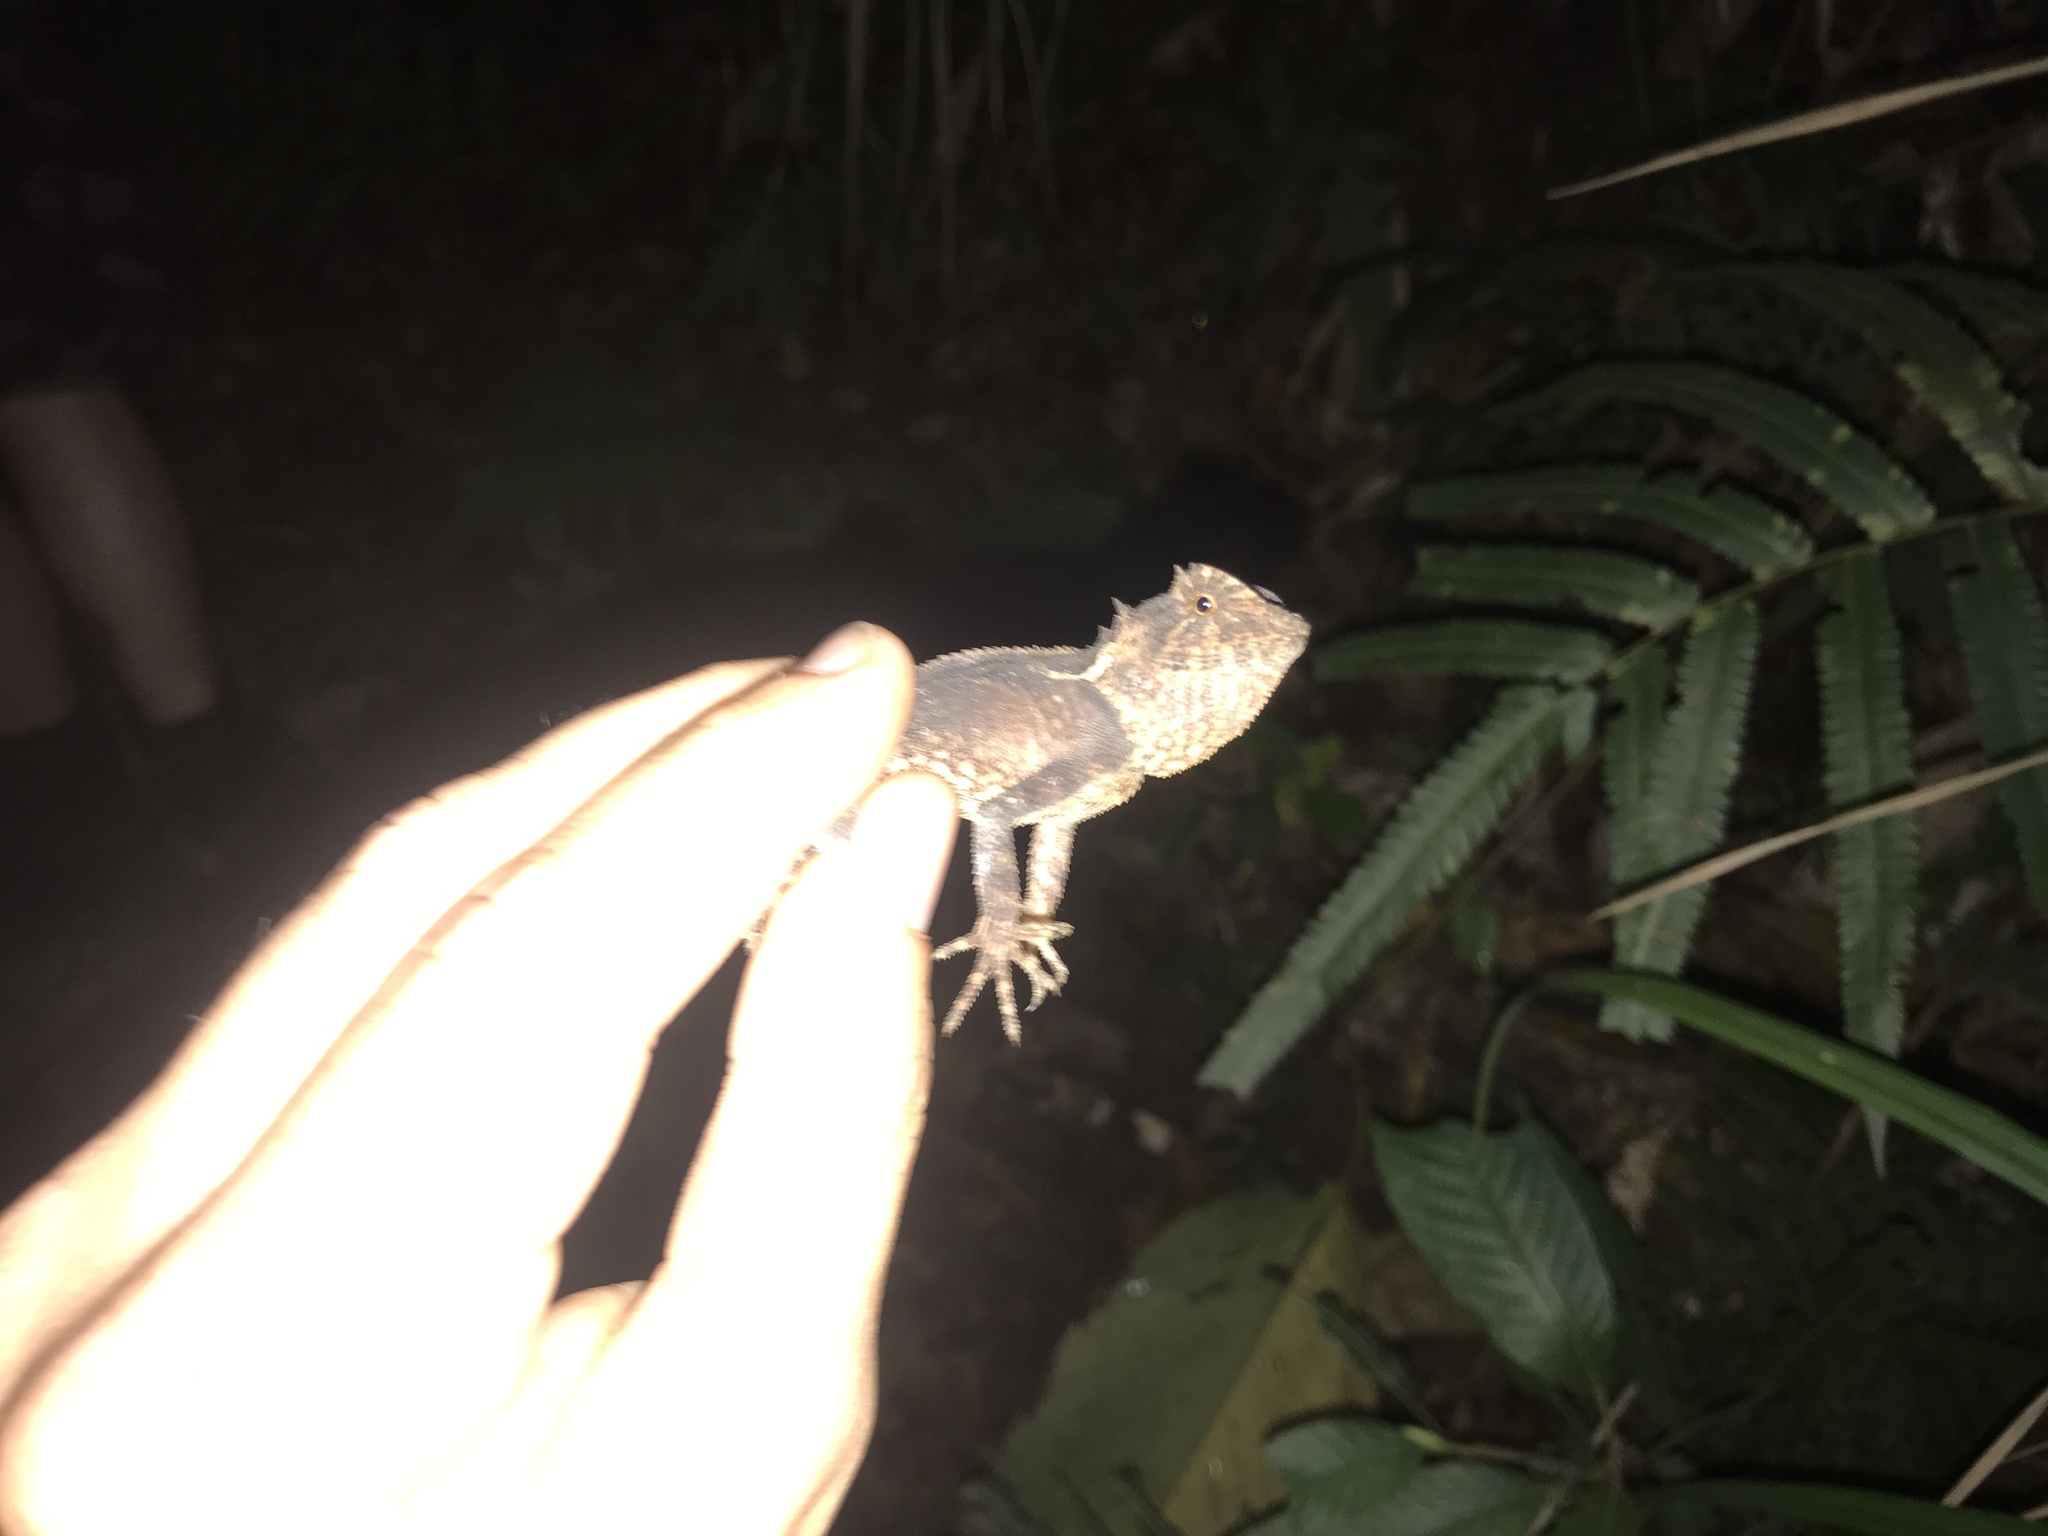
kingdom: Animalia
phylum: Chordata
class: Squamata
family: Agamidae
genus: Acanthosaura
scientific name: Acanthosaura lepidogaster
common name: Brown pricklenape
